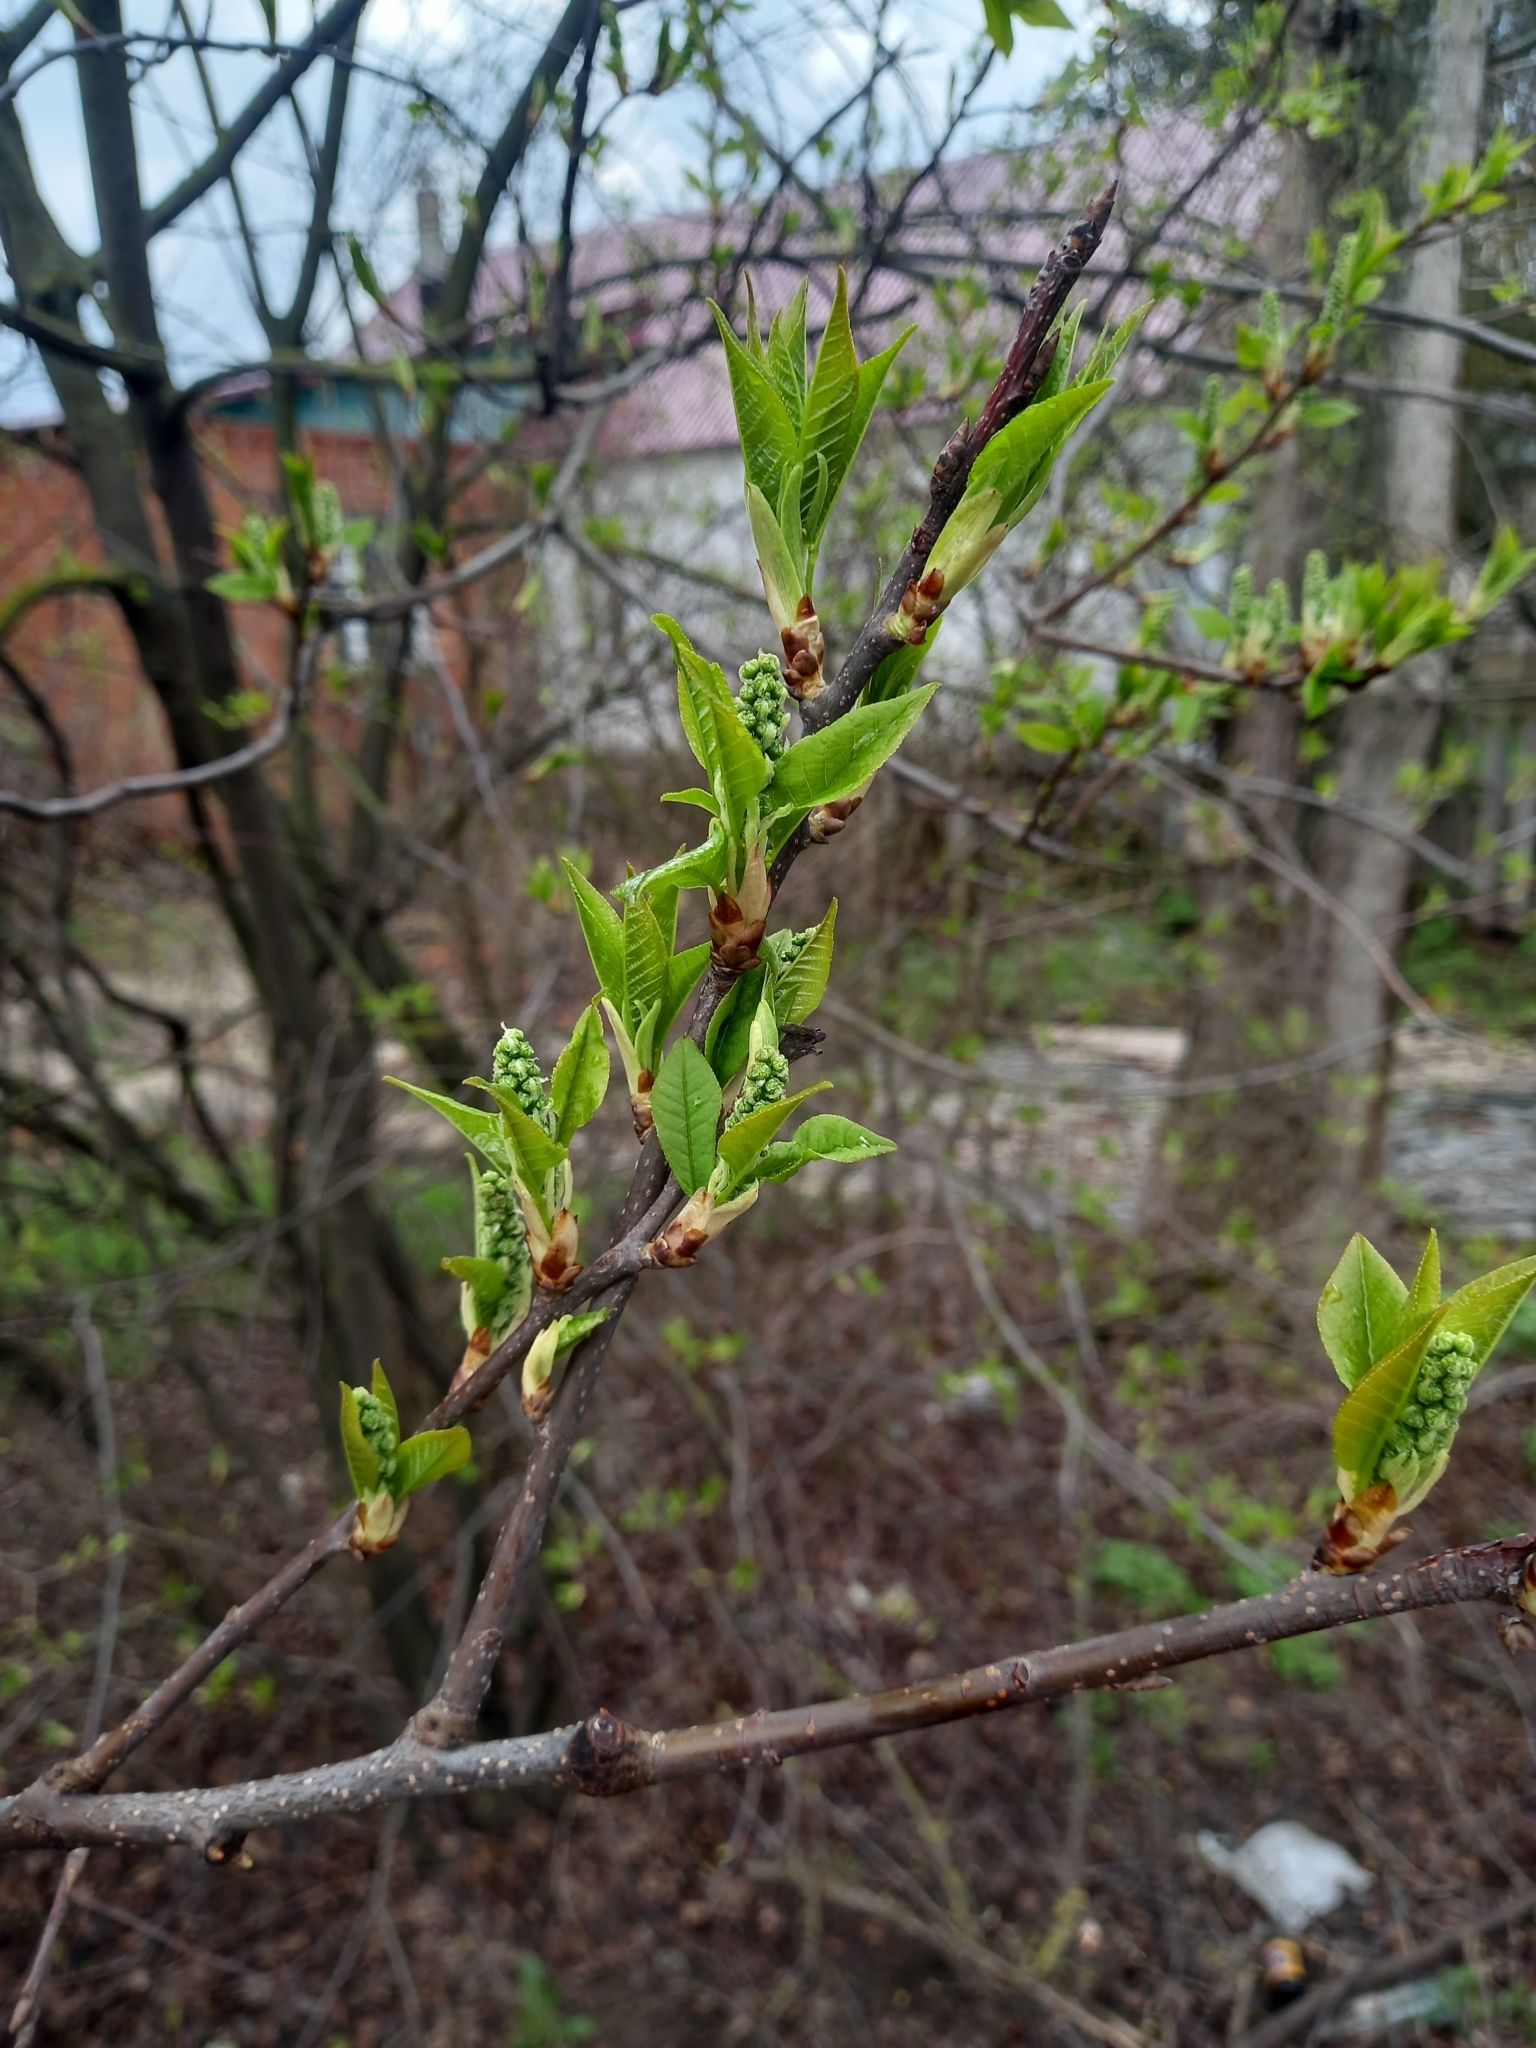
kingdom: Plantae
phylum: Tracheophyta
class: Magnoliopsida
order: Rosales
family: Rosaceae
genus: Prunus
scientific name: Prunus padus
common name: Bird cherry
